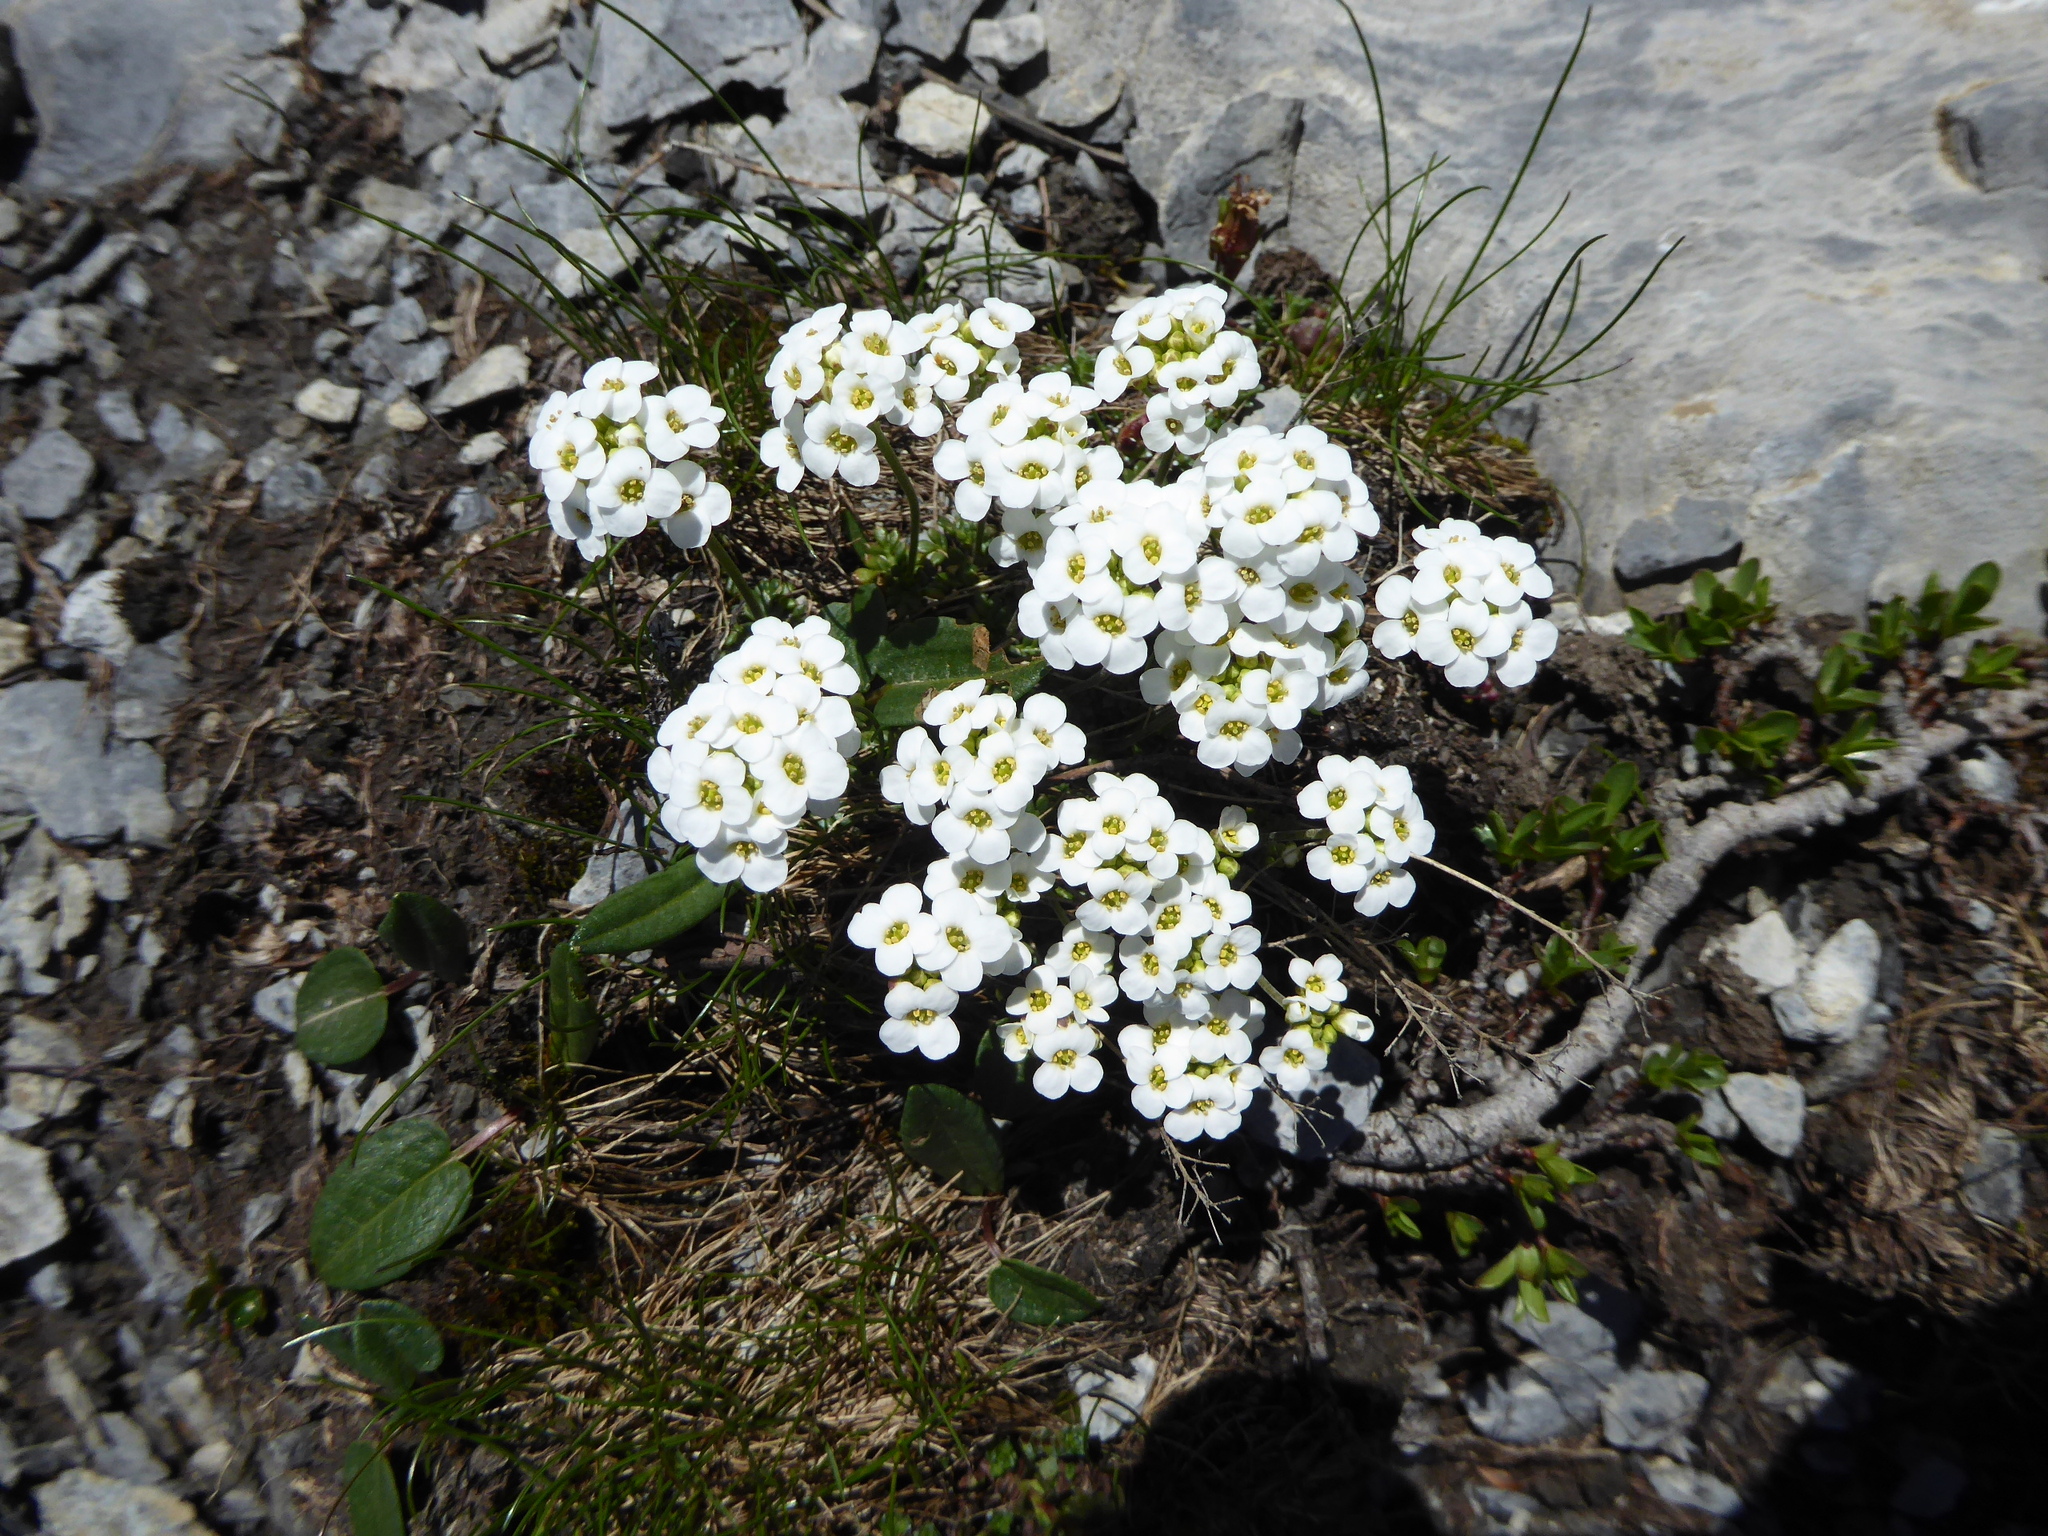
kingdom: Plantae
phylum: Tracheophyta
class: Magnoliopsida
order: Brassicales
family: Brassicaceae
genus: Hornungia
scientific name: Hornungia alpina
